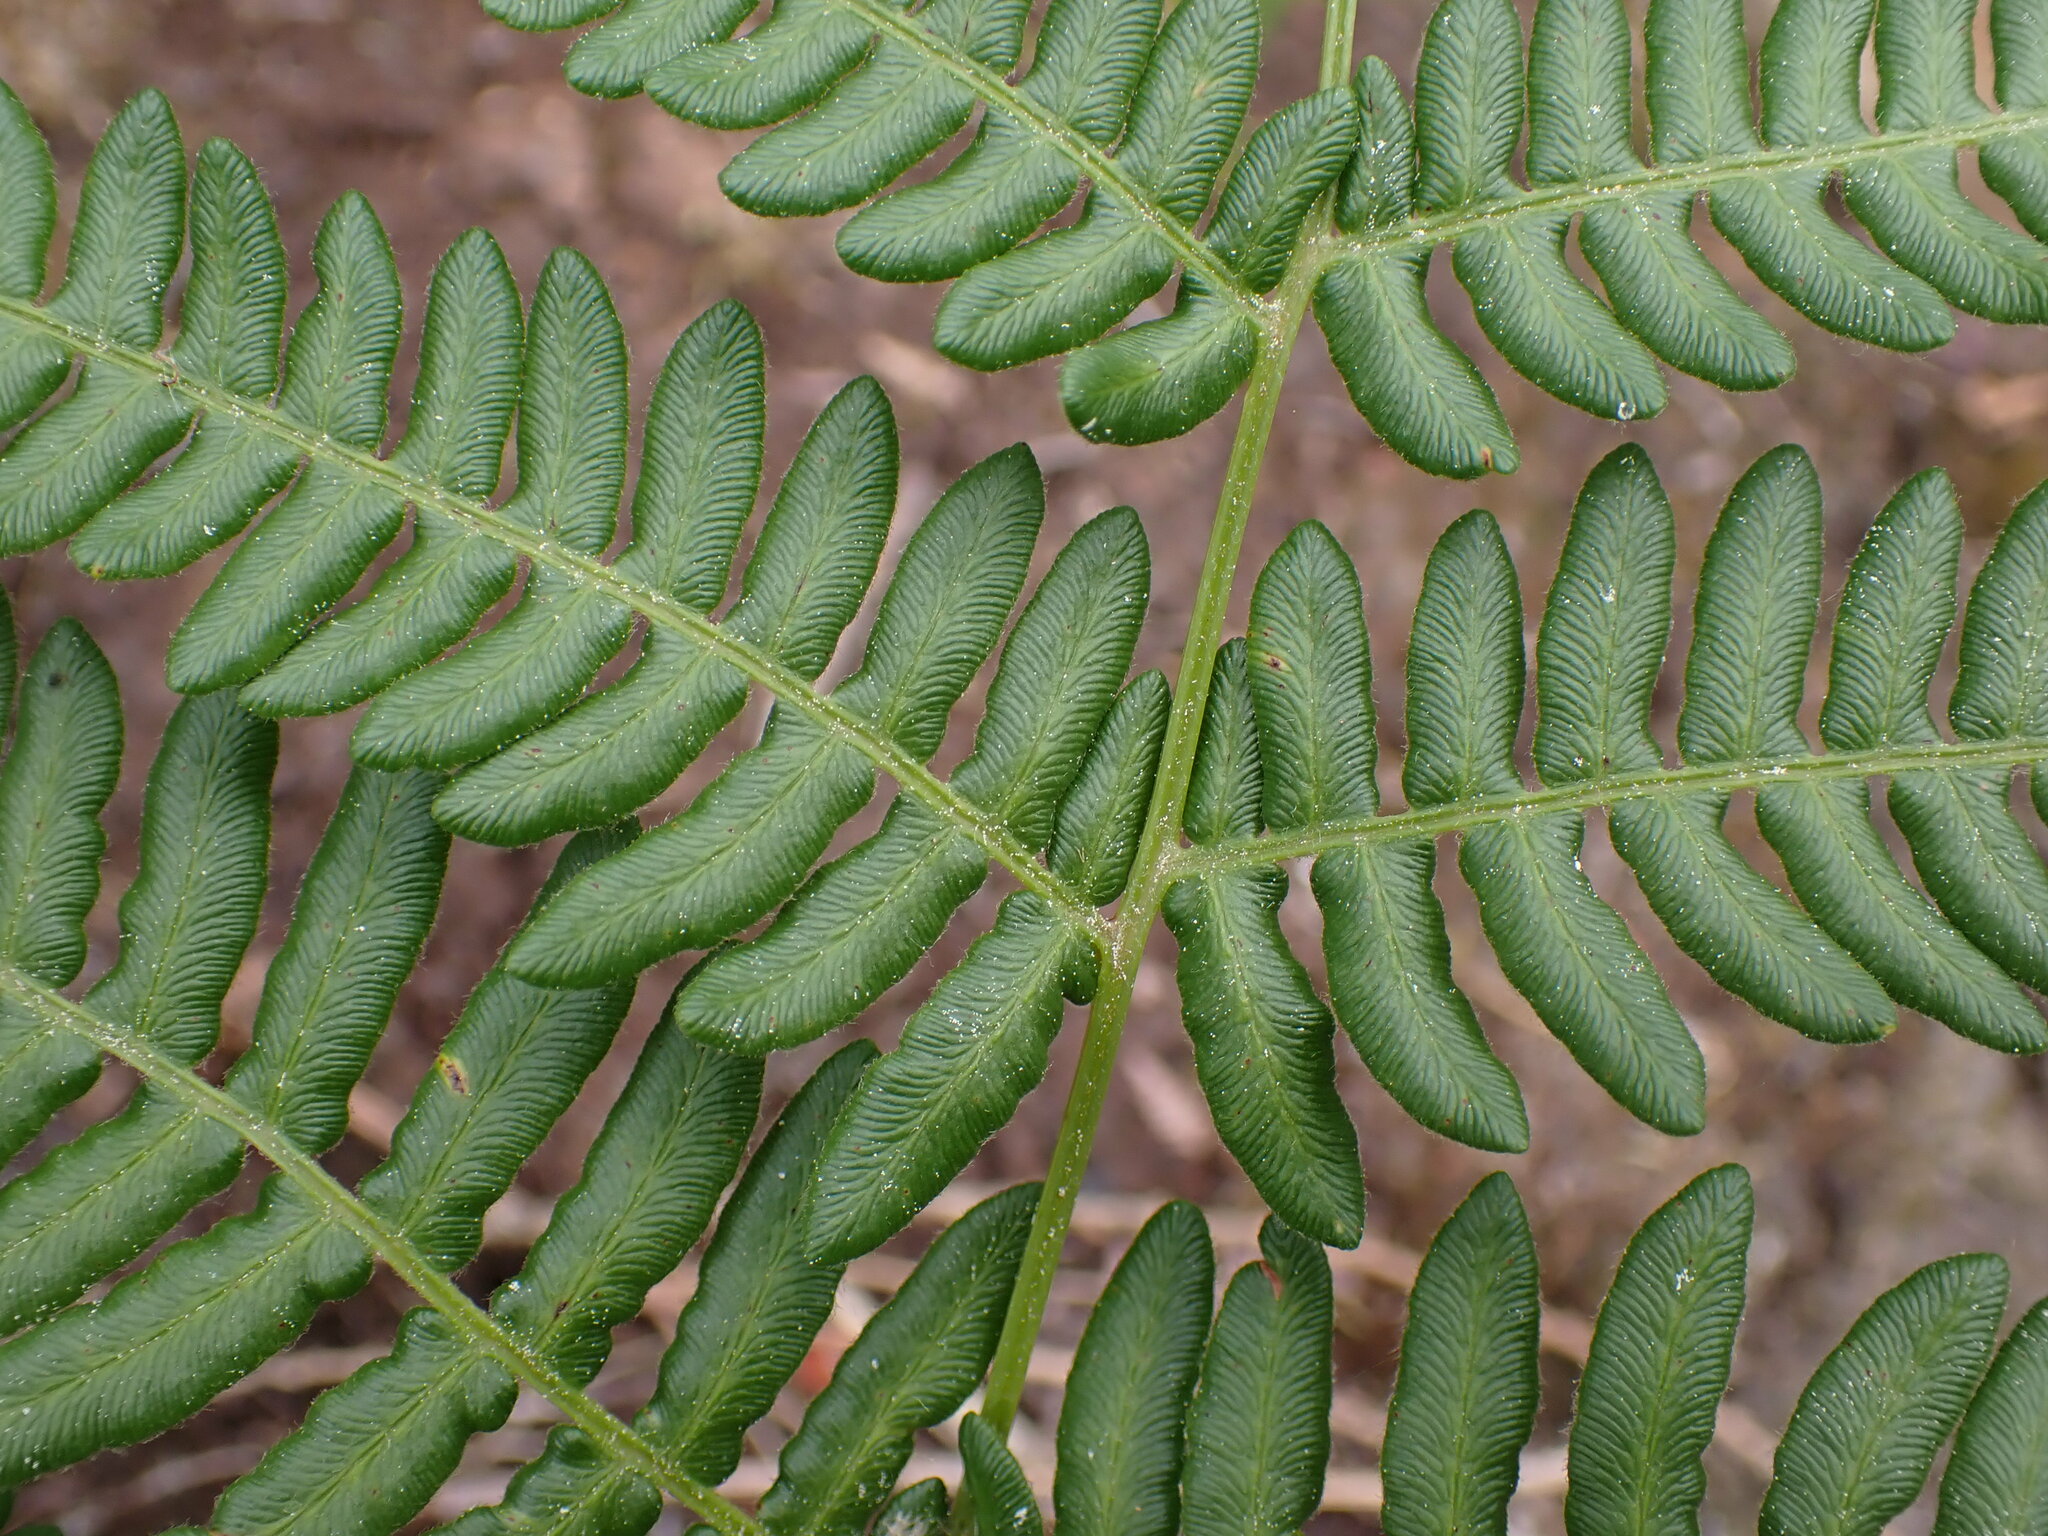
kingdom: Plantae
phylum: Tracheophyta
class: Polypodiopsida
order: Polypodiales
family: Dennstaedtiaceae
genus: Pteridium
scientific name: Pteridium aquilinum
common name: Bracken
